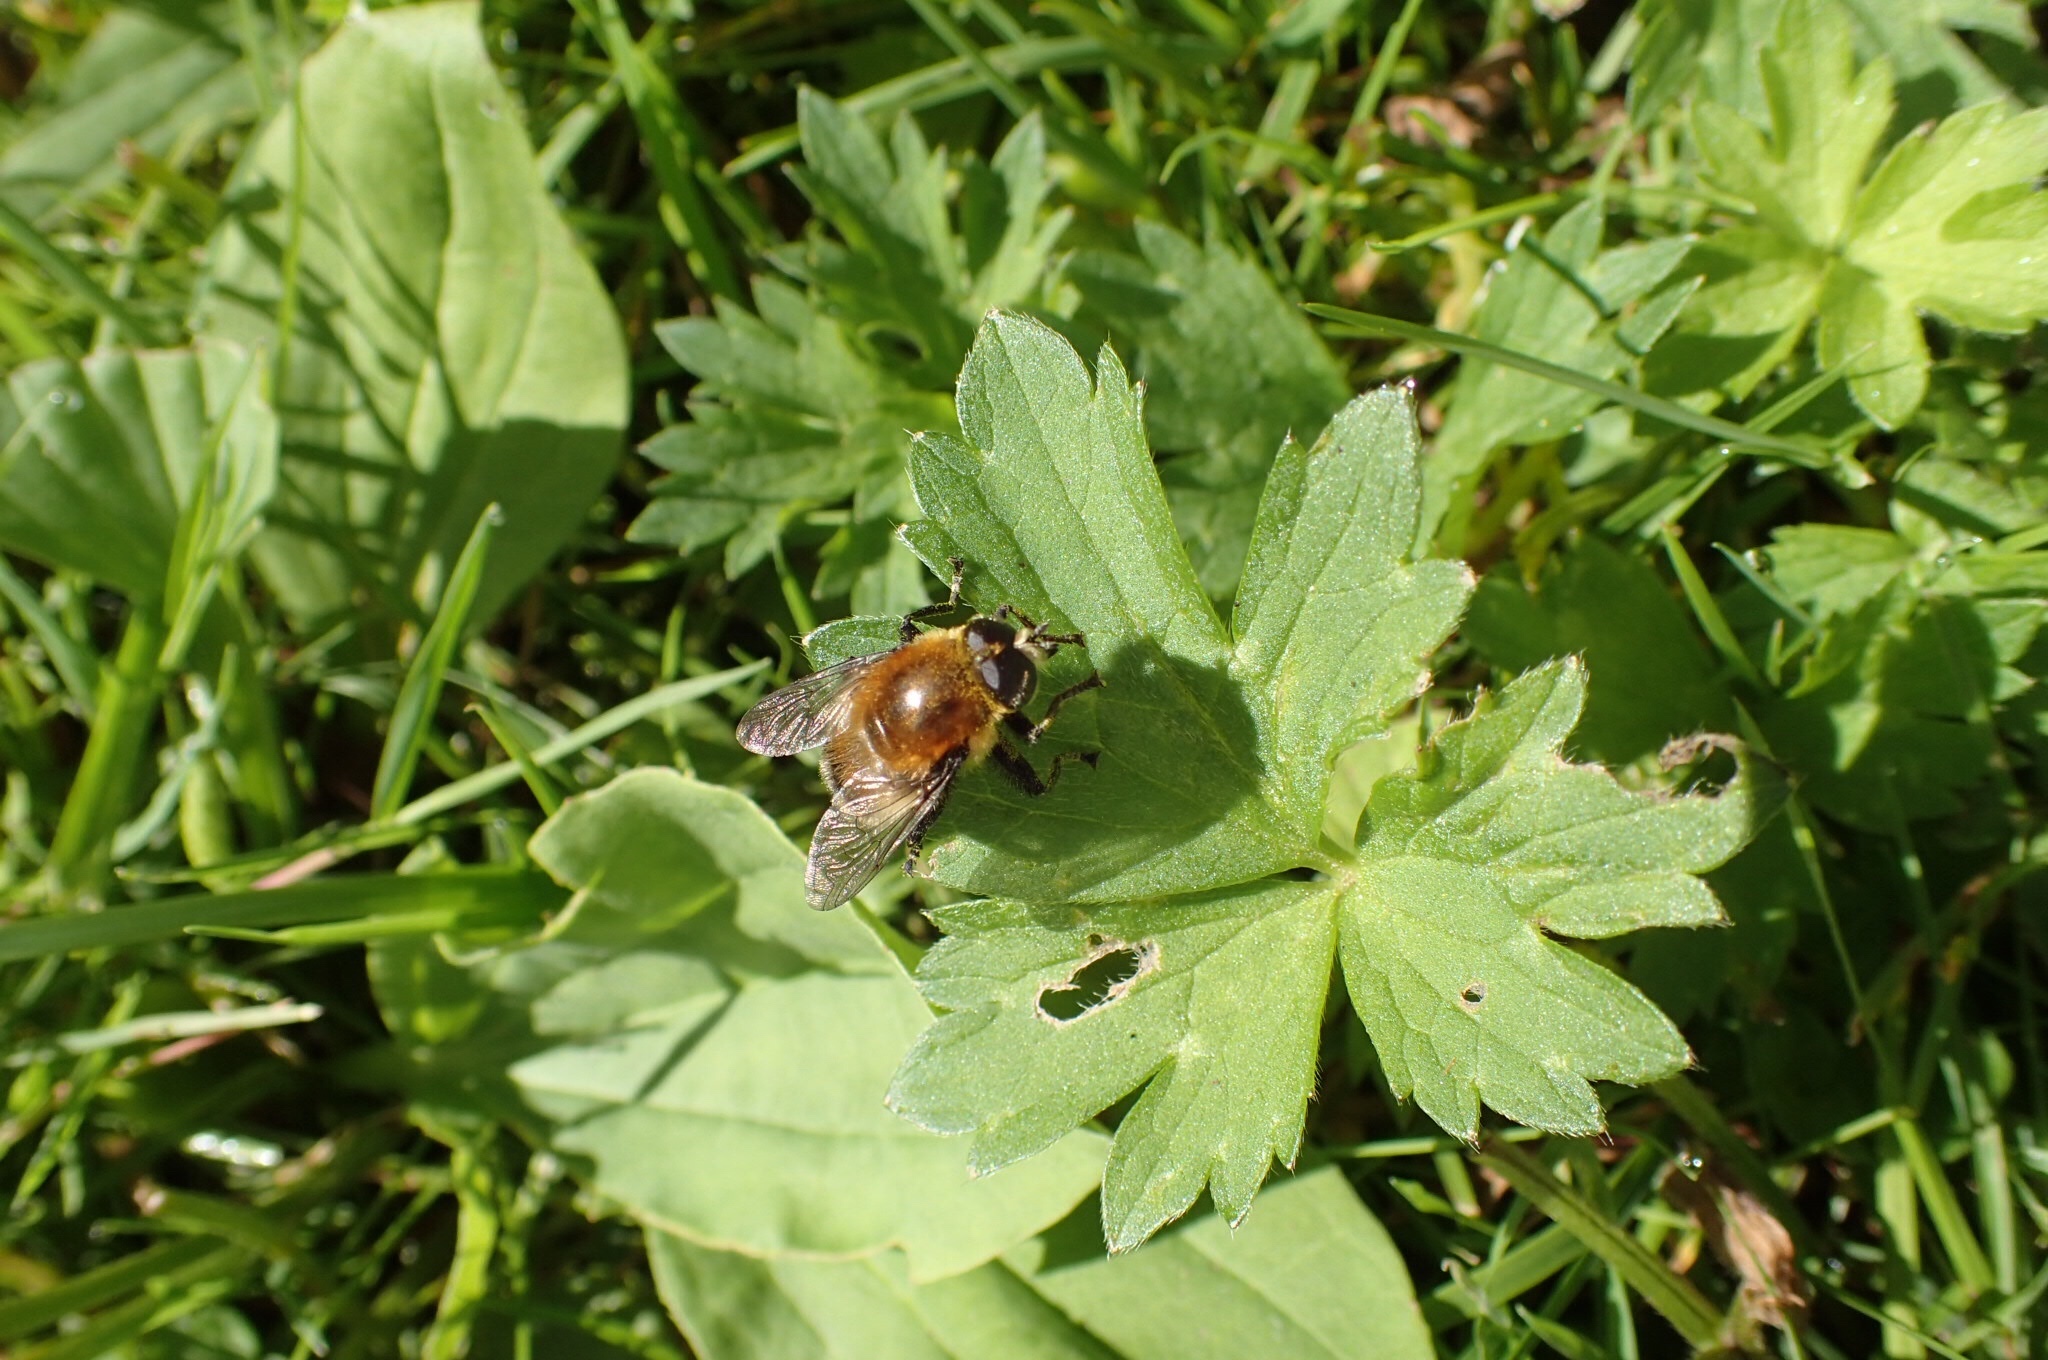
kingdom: Animalia
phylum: Arthropoda
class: Insecta
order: Diptera
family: Syrphidae
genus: Merodon
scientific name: Merodon equestris
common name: Greater bulb-fly
